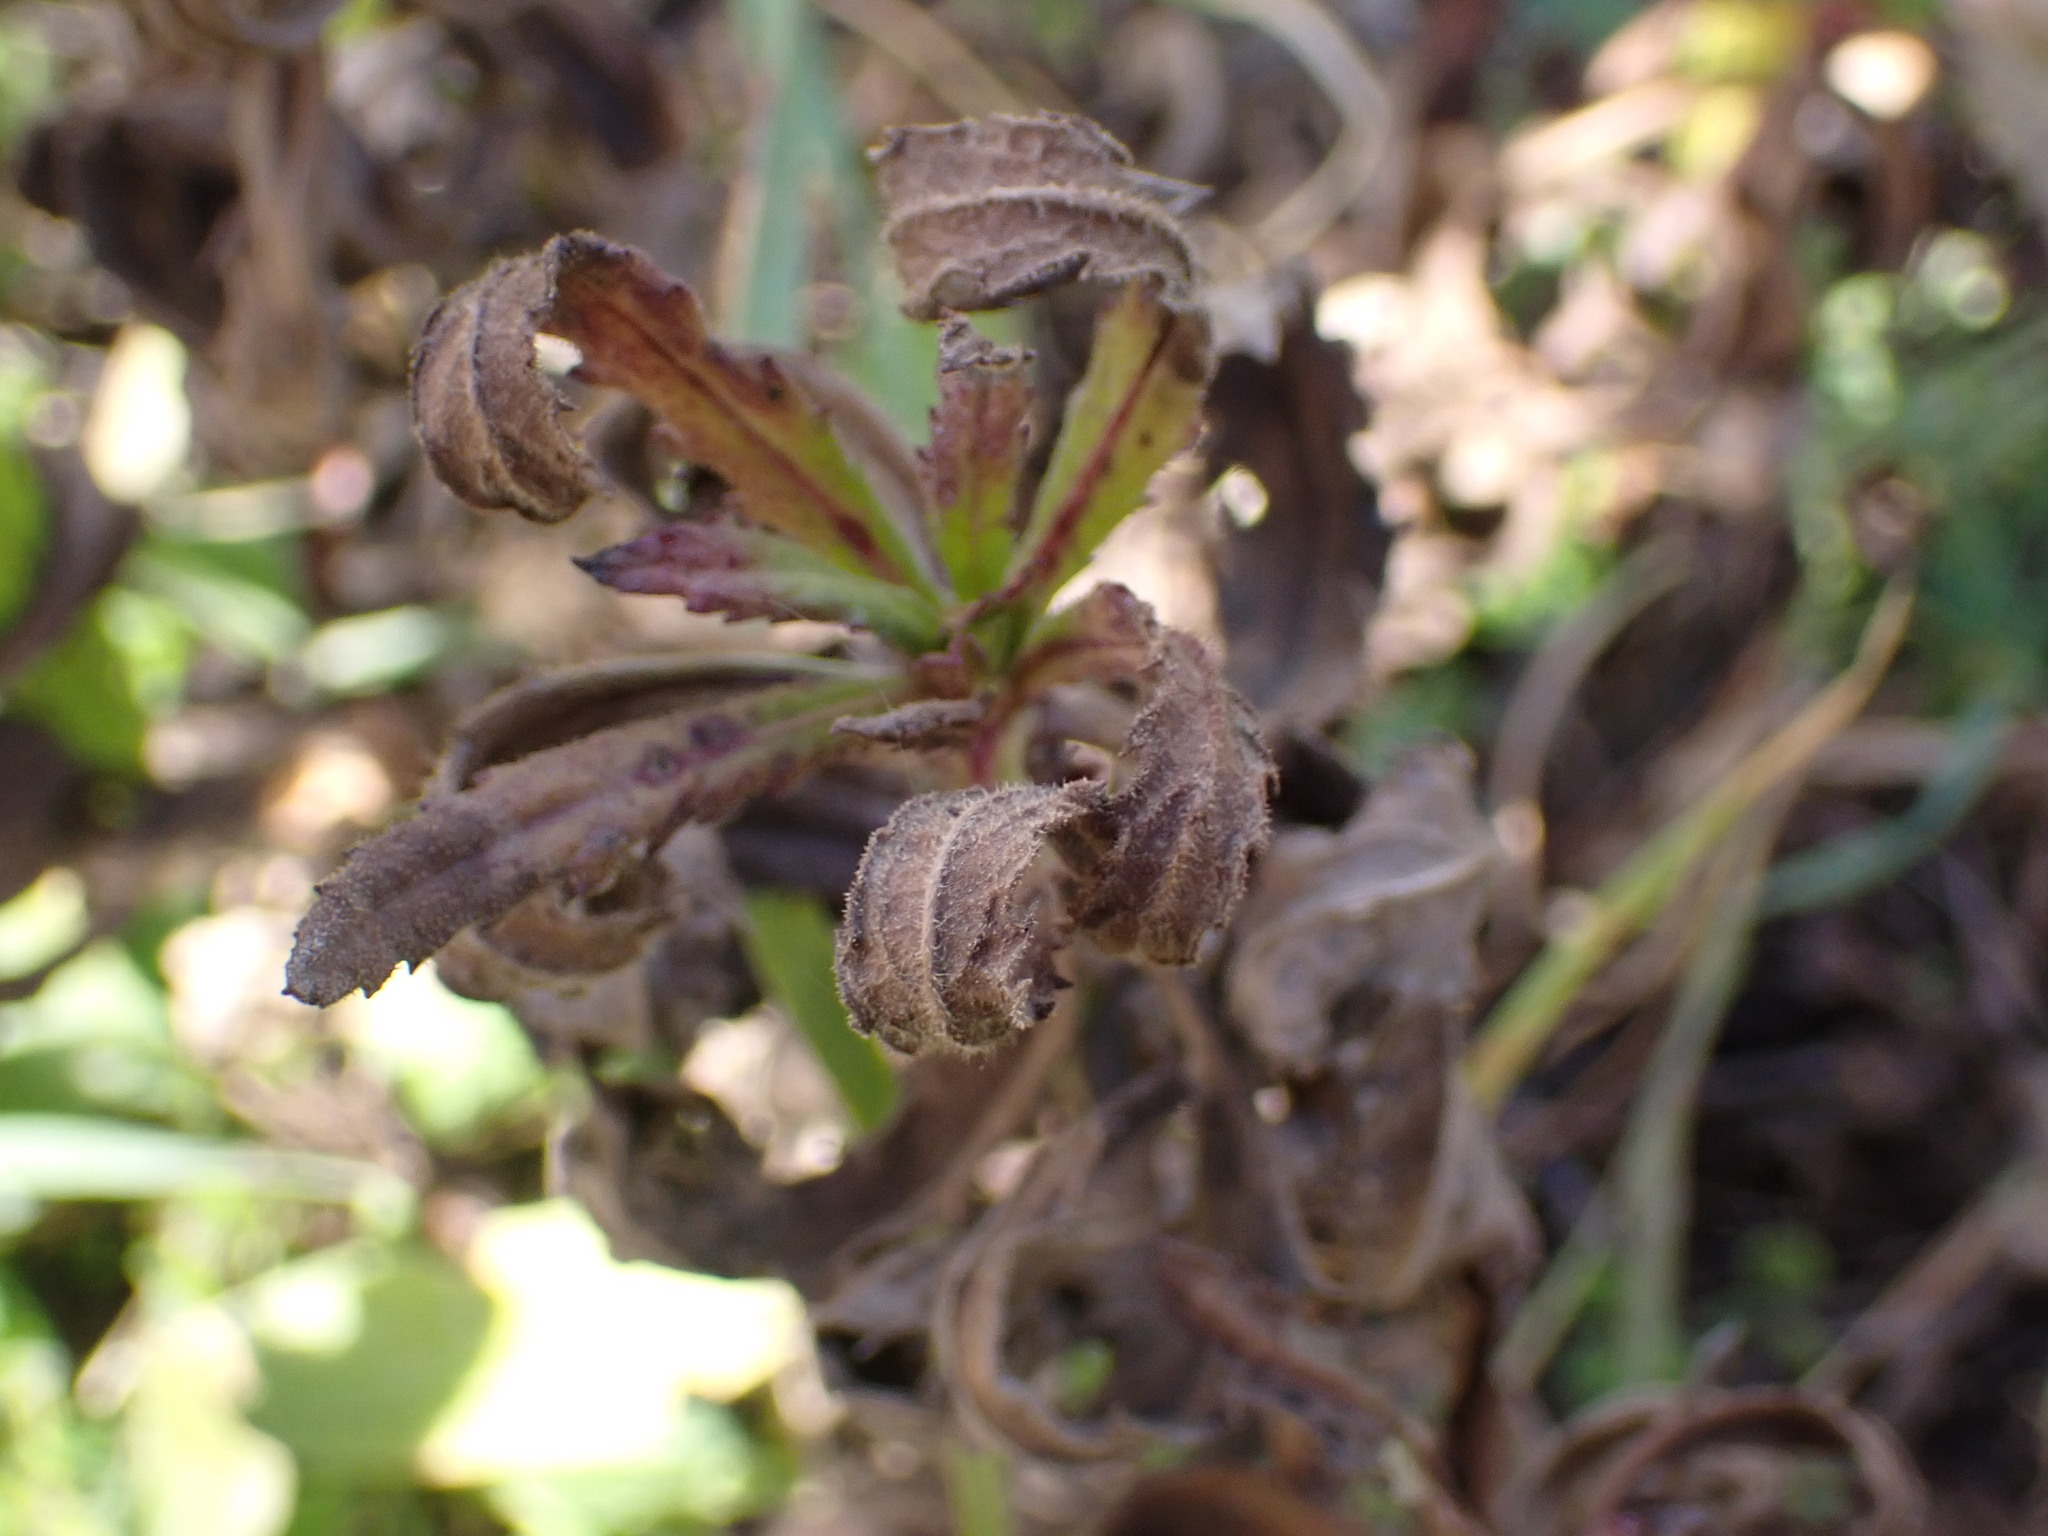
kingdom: Plantae
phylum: Tracheophyta
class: Magnoliopsida
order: Asterales
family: Asteraceae
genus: Dittrichia
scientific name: Dittrichia viscosa
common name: Woody fleabane
